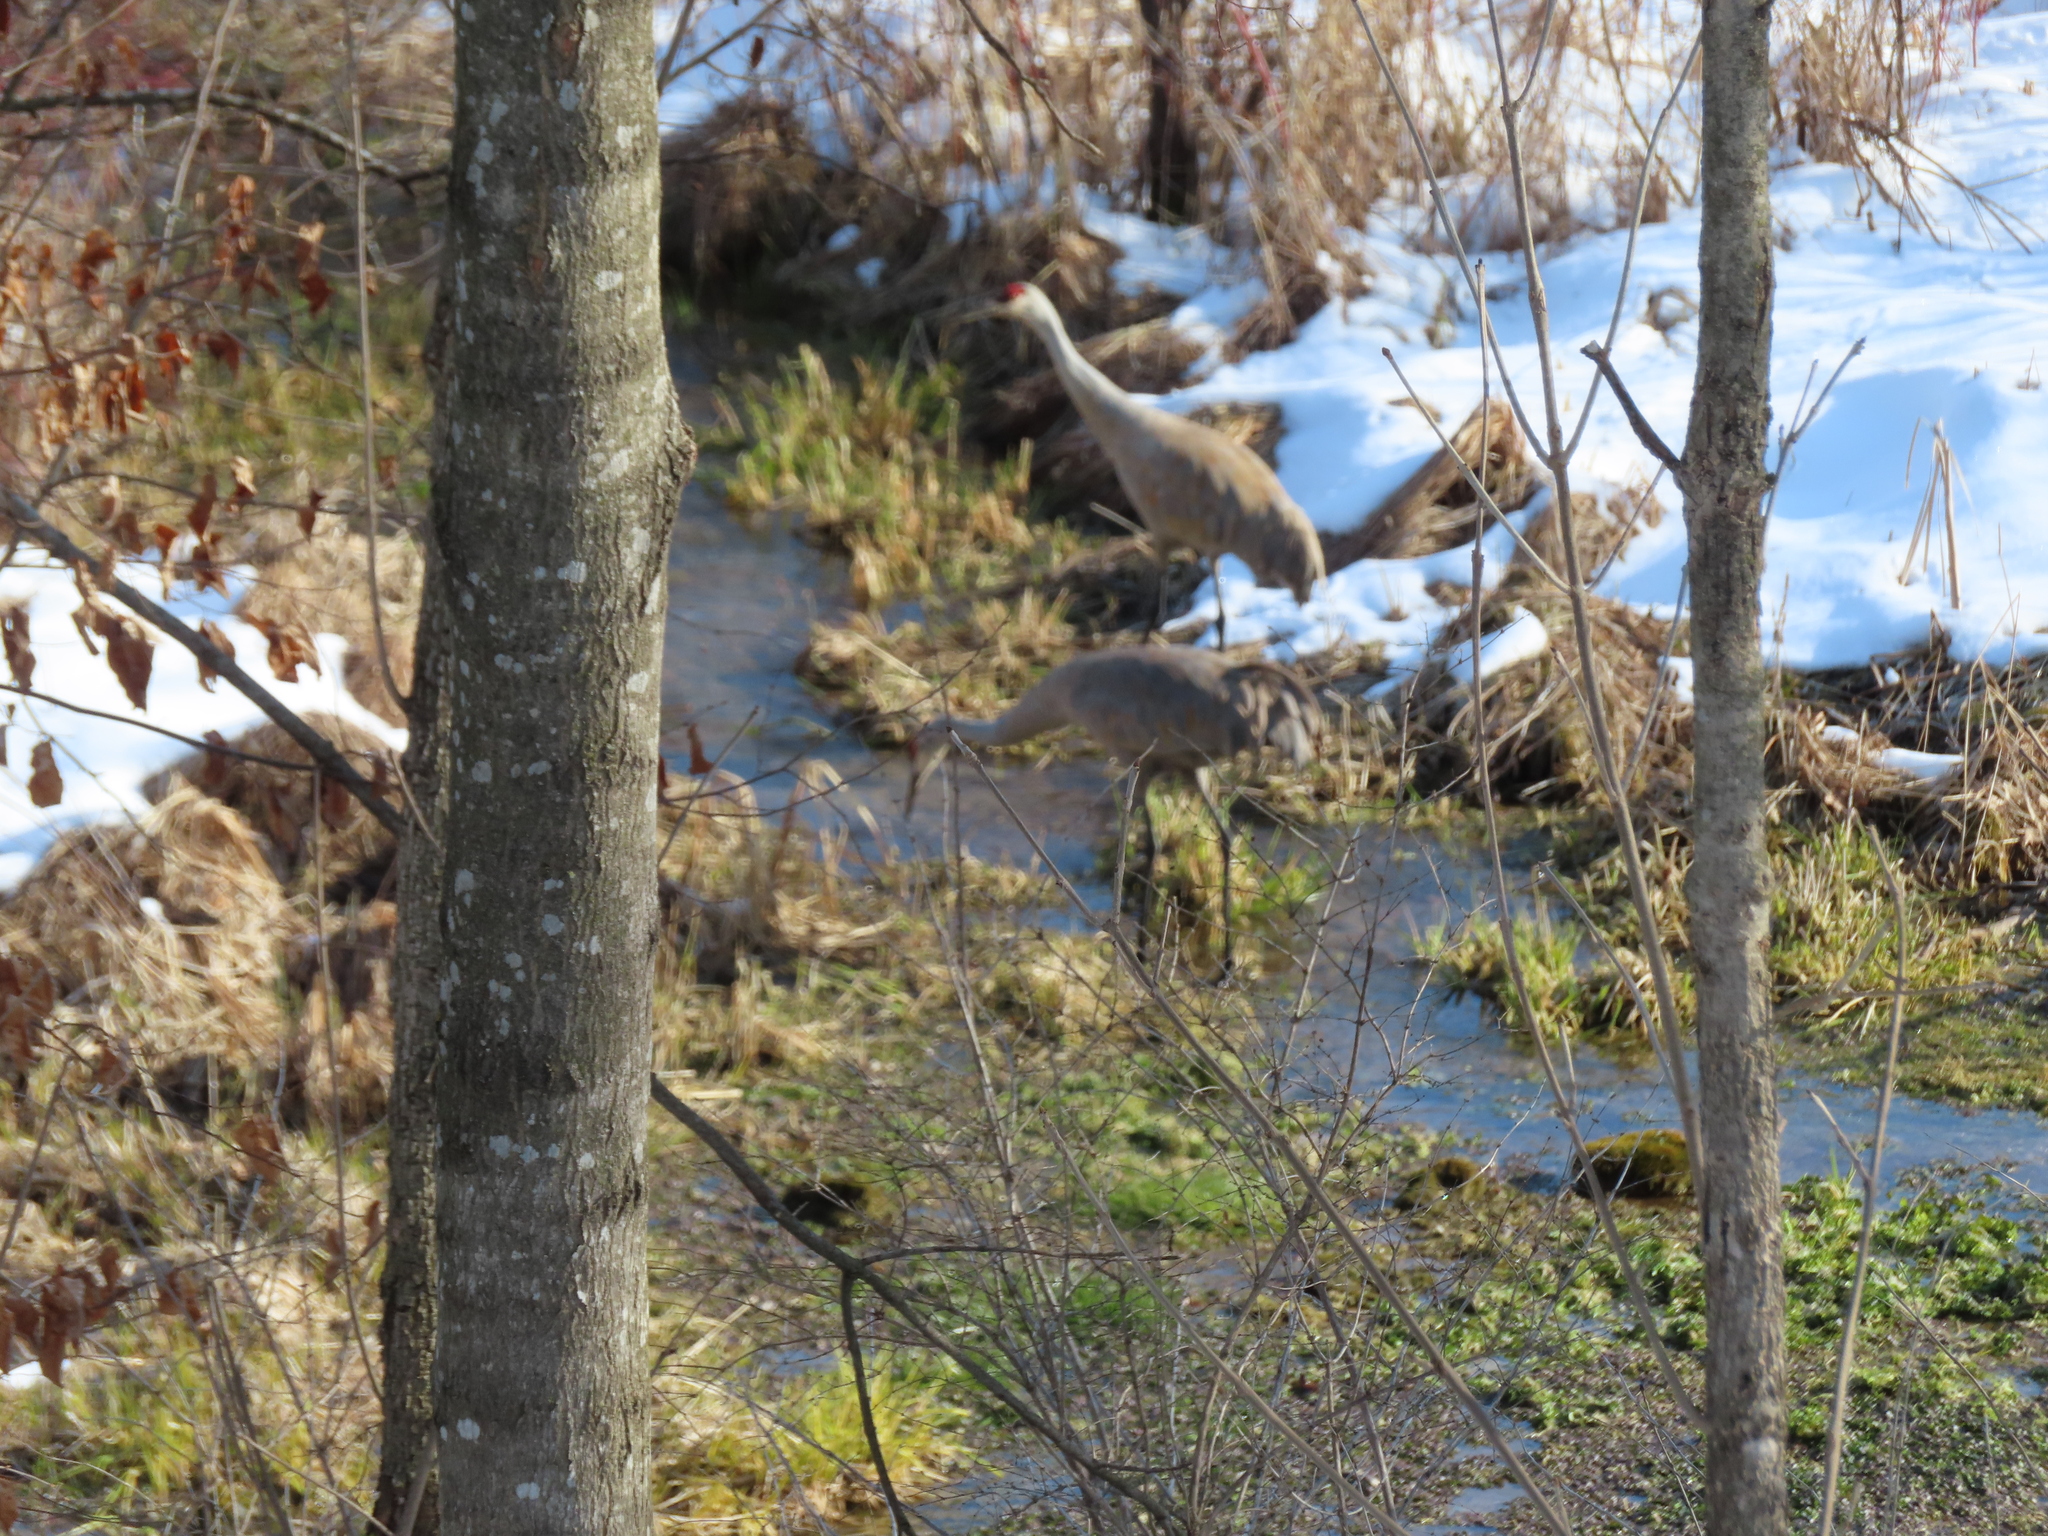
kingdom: Animalia
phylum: Chordata
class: Aves
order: Gruiformes
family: Gruidae
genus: Grus
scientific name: Grus canadensis
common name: Sandhill crane
